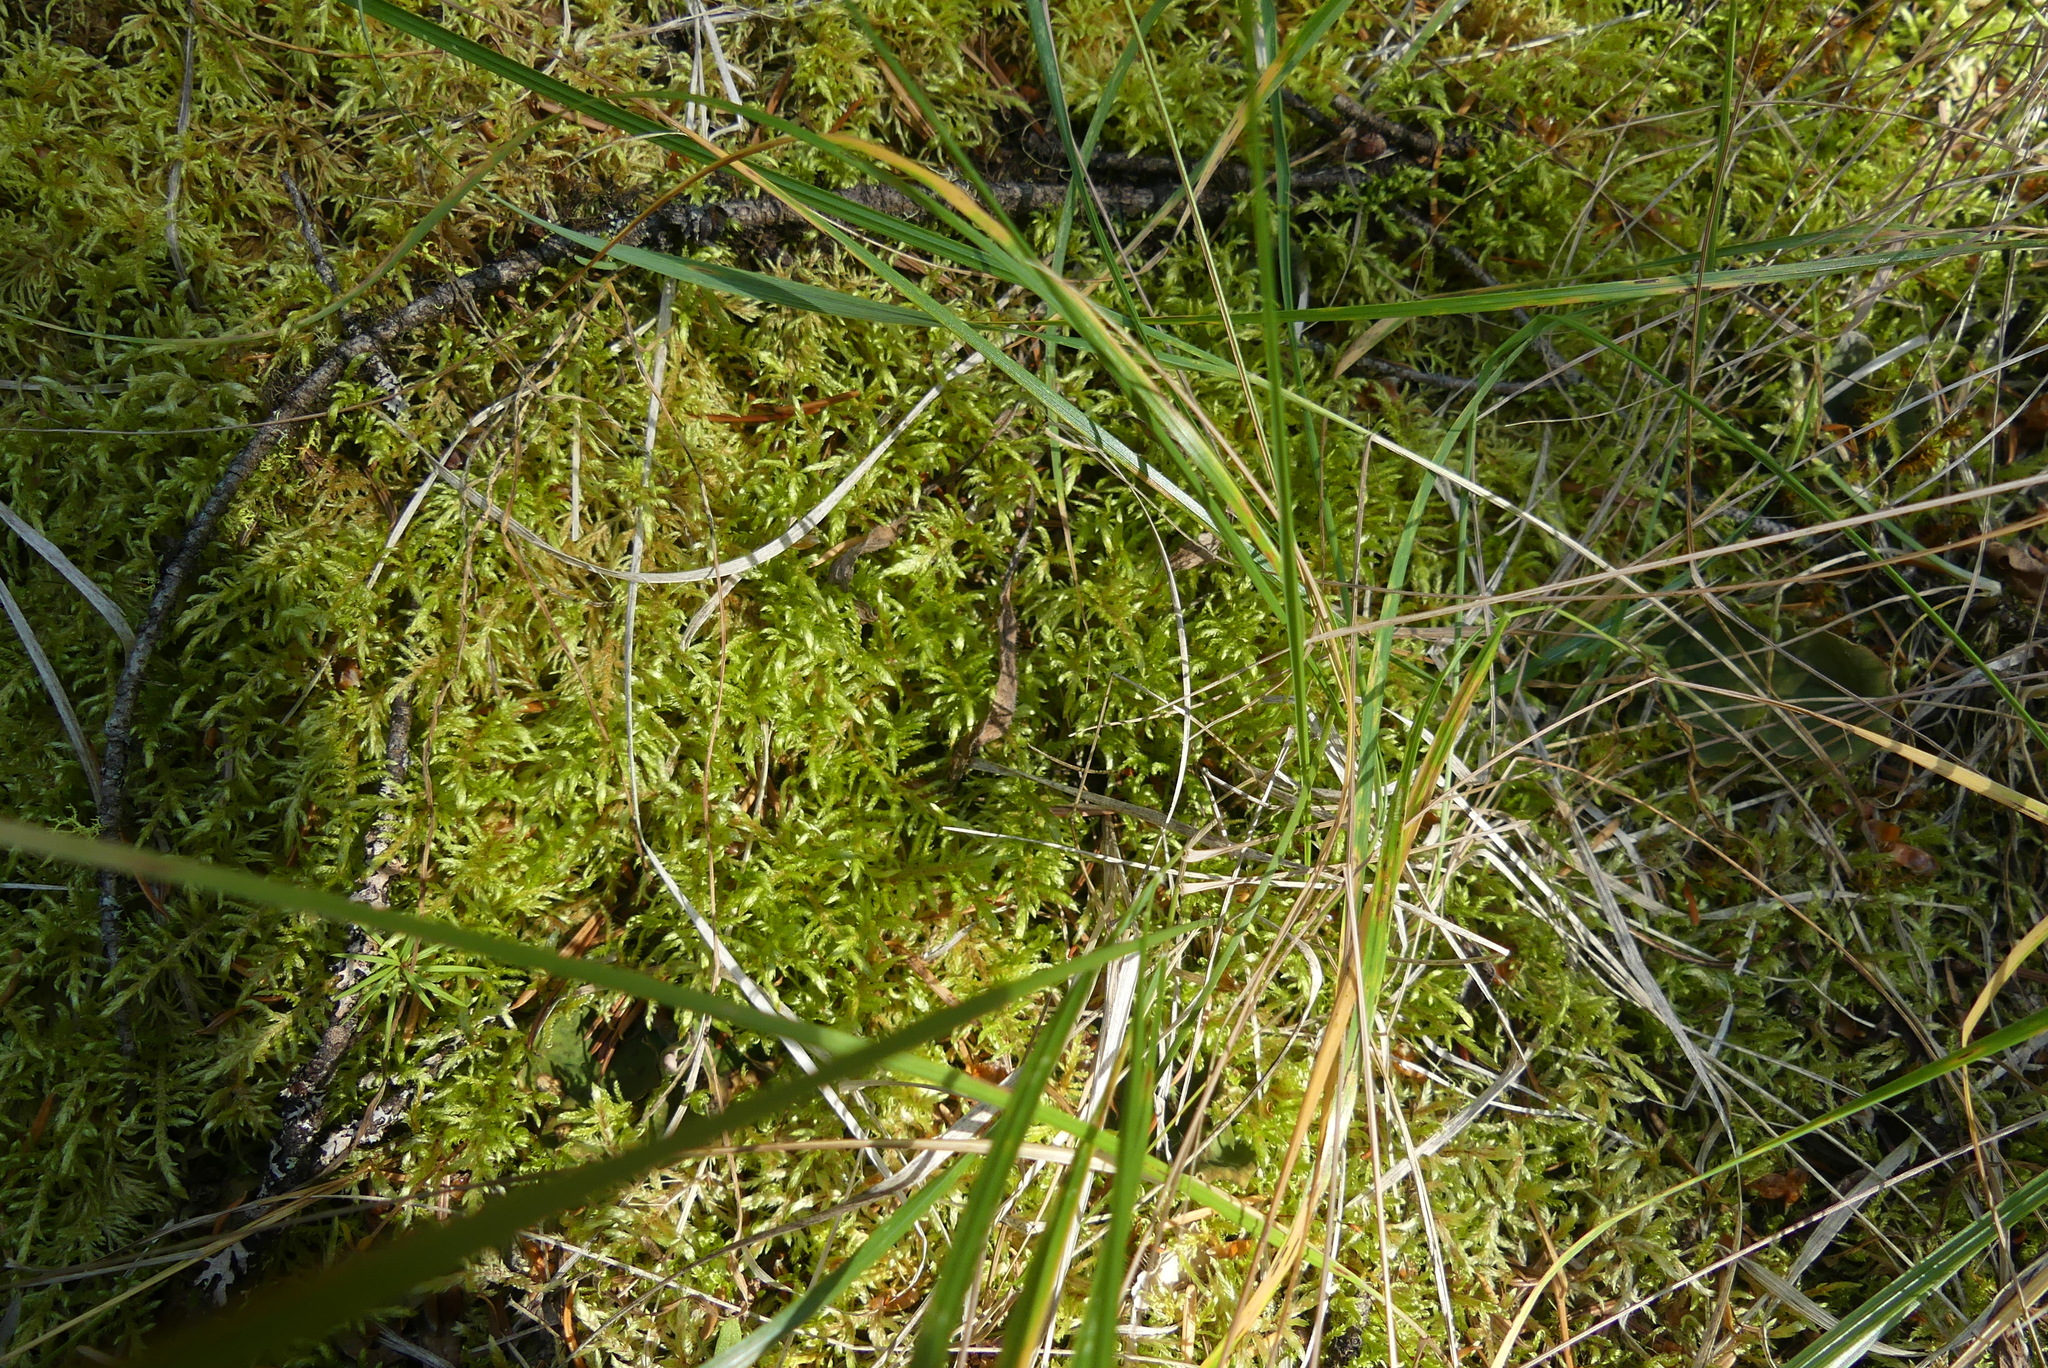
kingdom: Plantae
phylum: Bryophyta
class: Bryopsida
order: Hypnales
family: Hylocomiaceae
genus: Pleurozium
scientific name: Pleurozium schreberi
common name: Red-stemmed feather moss
